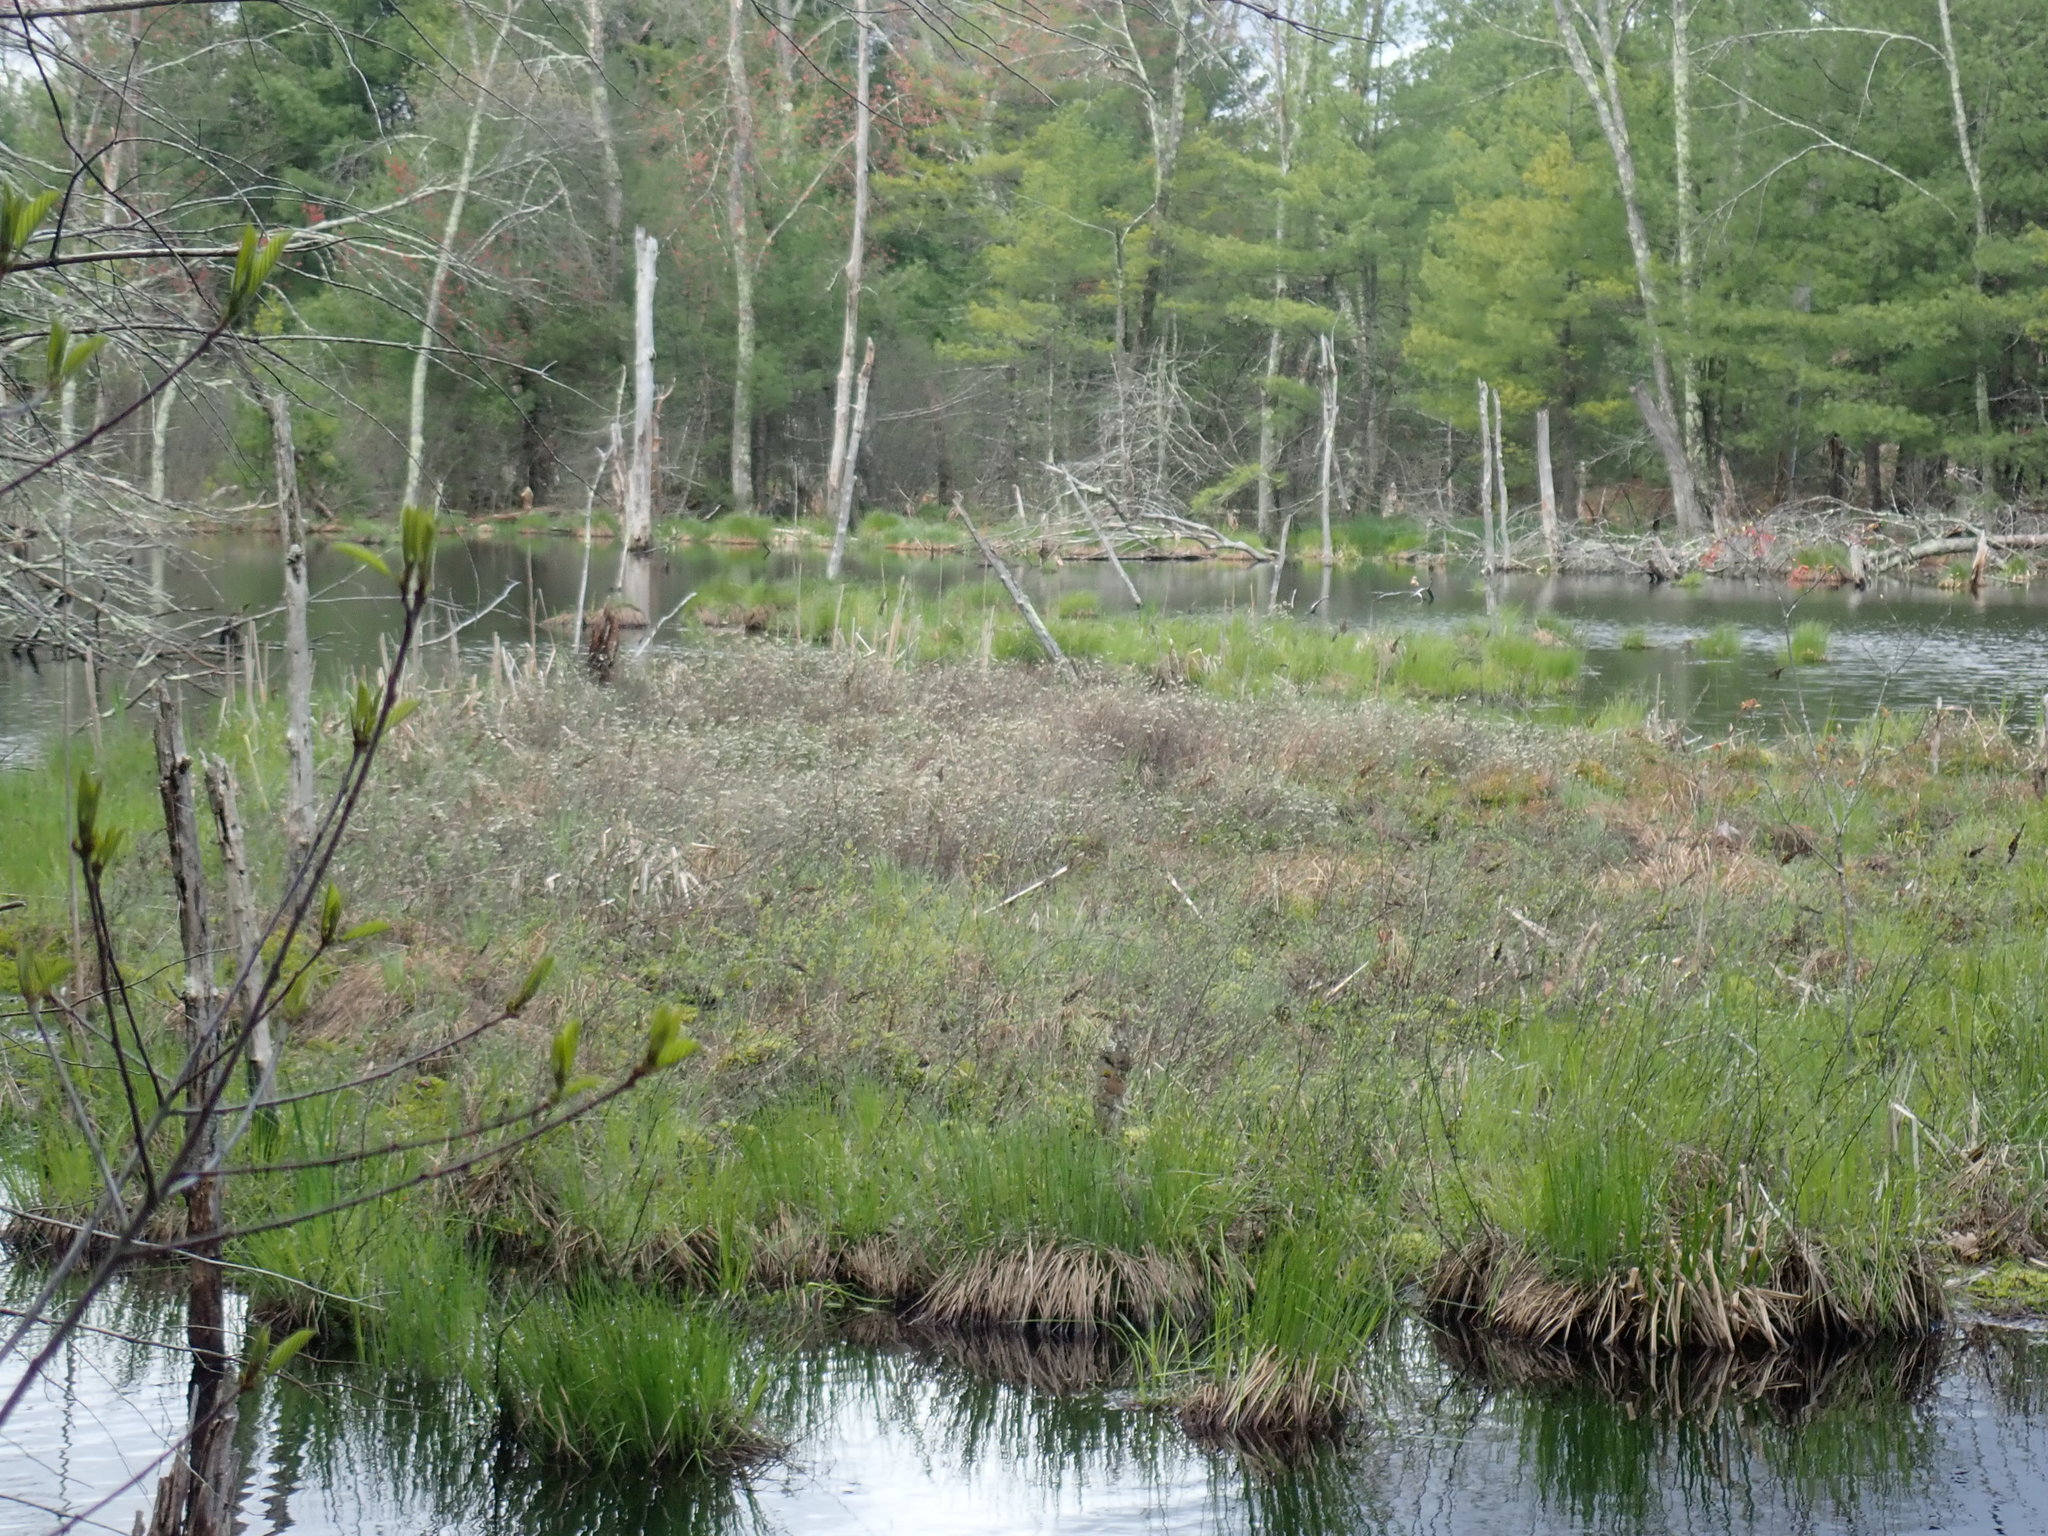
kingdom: Plantae
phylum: Tracheophyta
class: Magnoliopsida
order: Ericales
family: Ericaceae
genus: Chamaedaphne
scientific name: Chamaedaphne calyculata
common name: Leatherleaf
